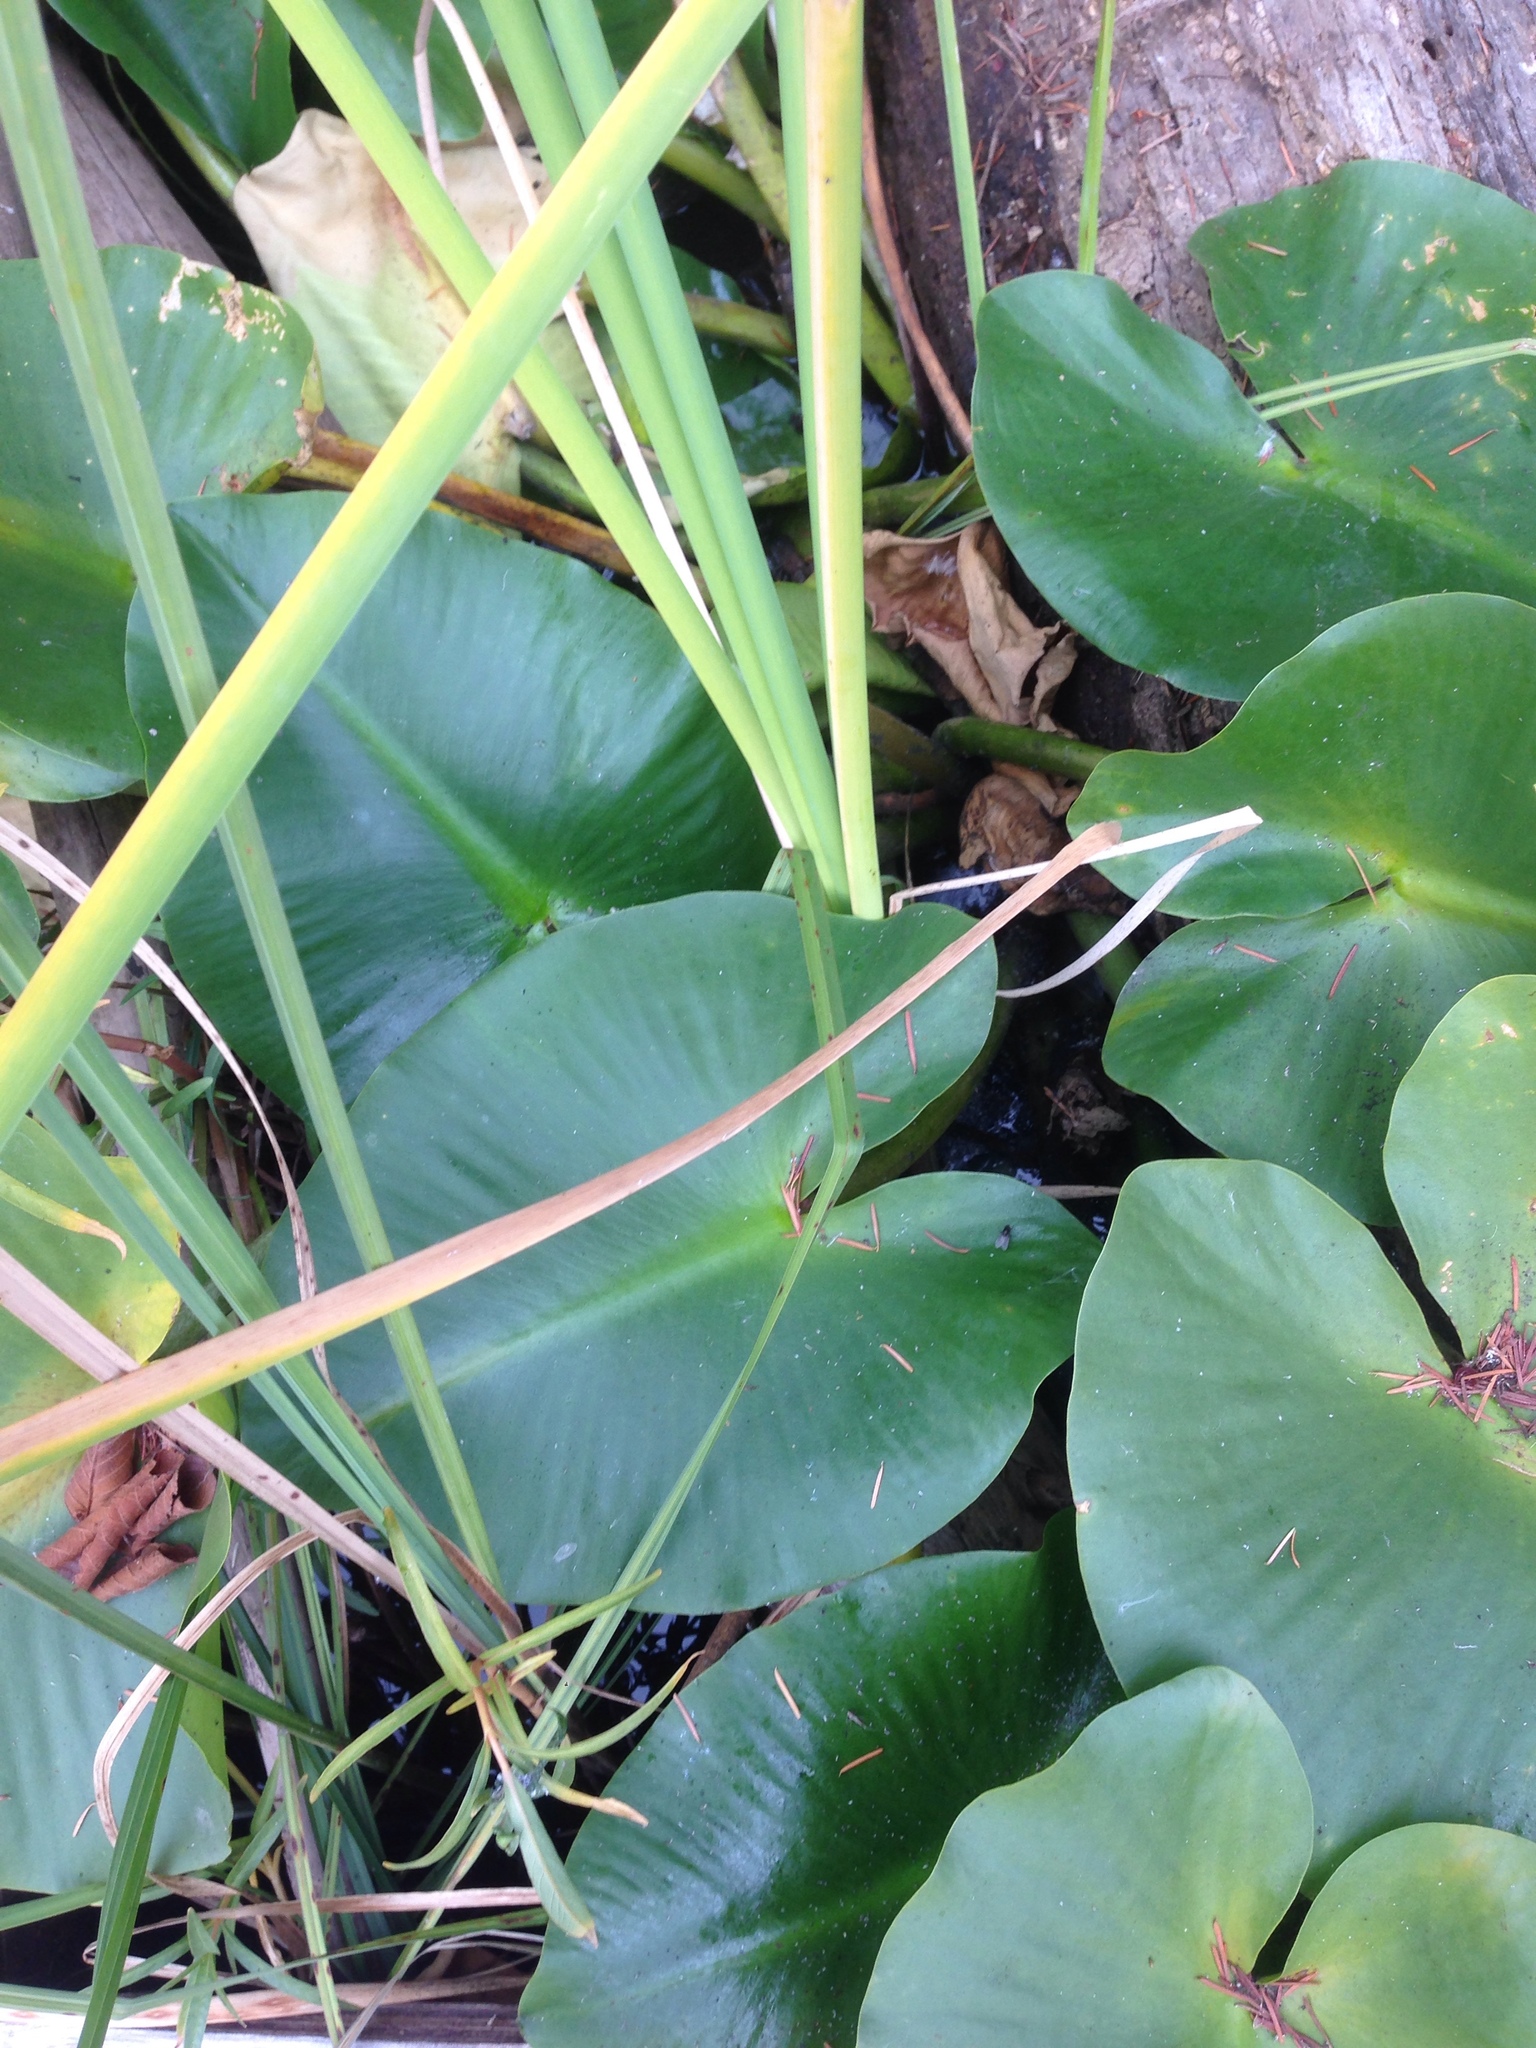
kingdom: Plantae
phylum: Tracheophyta
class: Magnoliopsida
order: Nymphaeales
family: Nymphaeaceae
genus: Nuphar
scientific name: Nuphar polysepala
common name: Rocky mountain cow-lily
